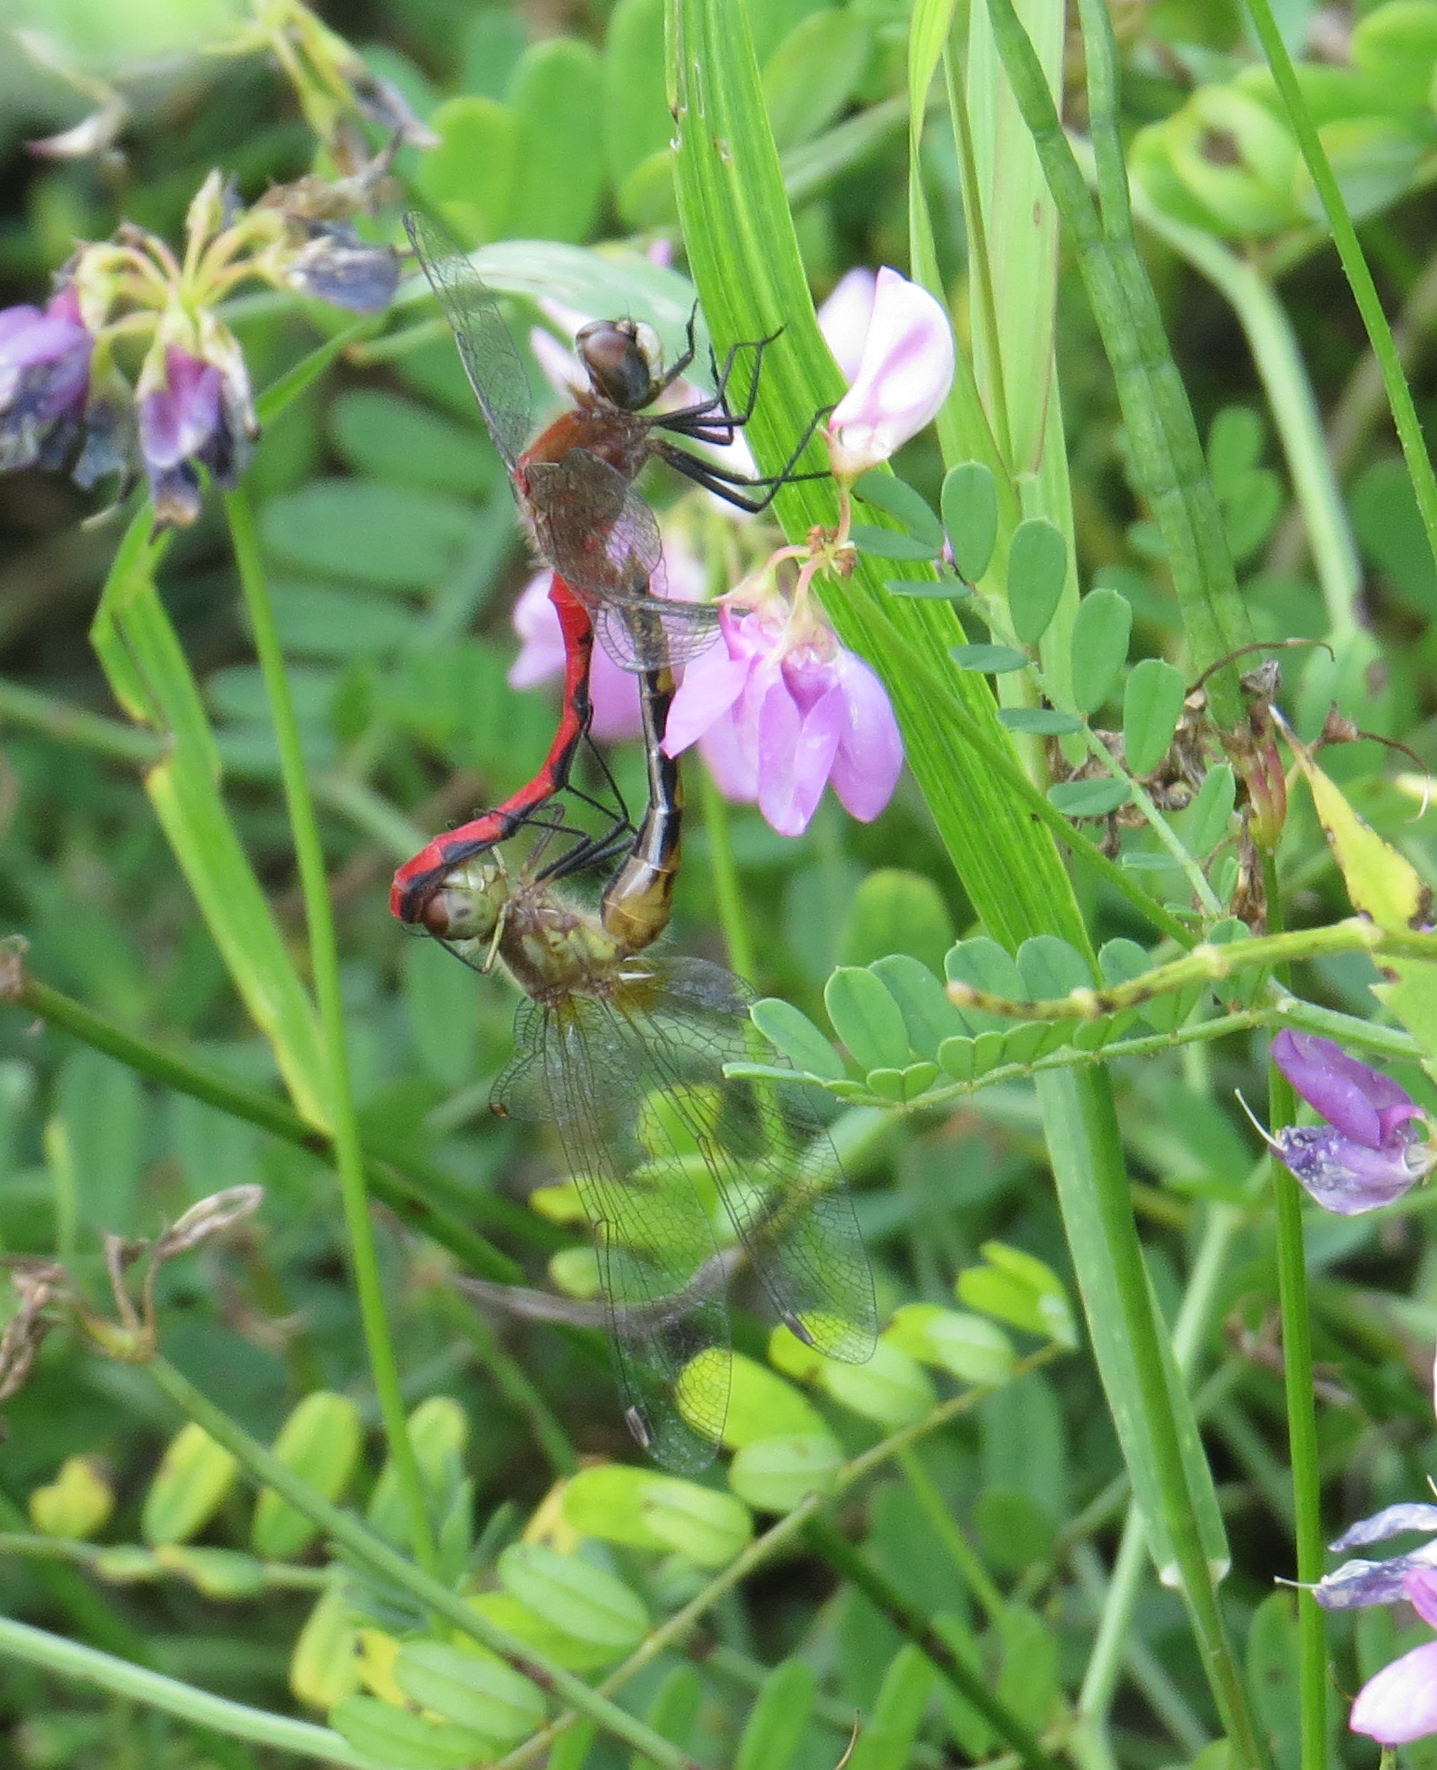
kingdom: Animalia
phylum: Arthropoda
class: Insecta
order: Odonata
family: Libellulidae
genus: Sympetrum
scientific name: Sympetrum obtrusum
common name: White-faced meadowhawk
